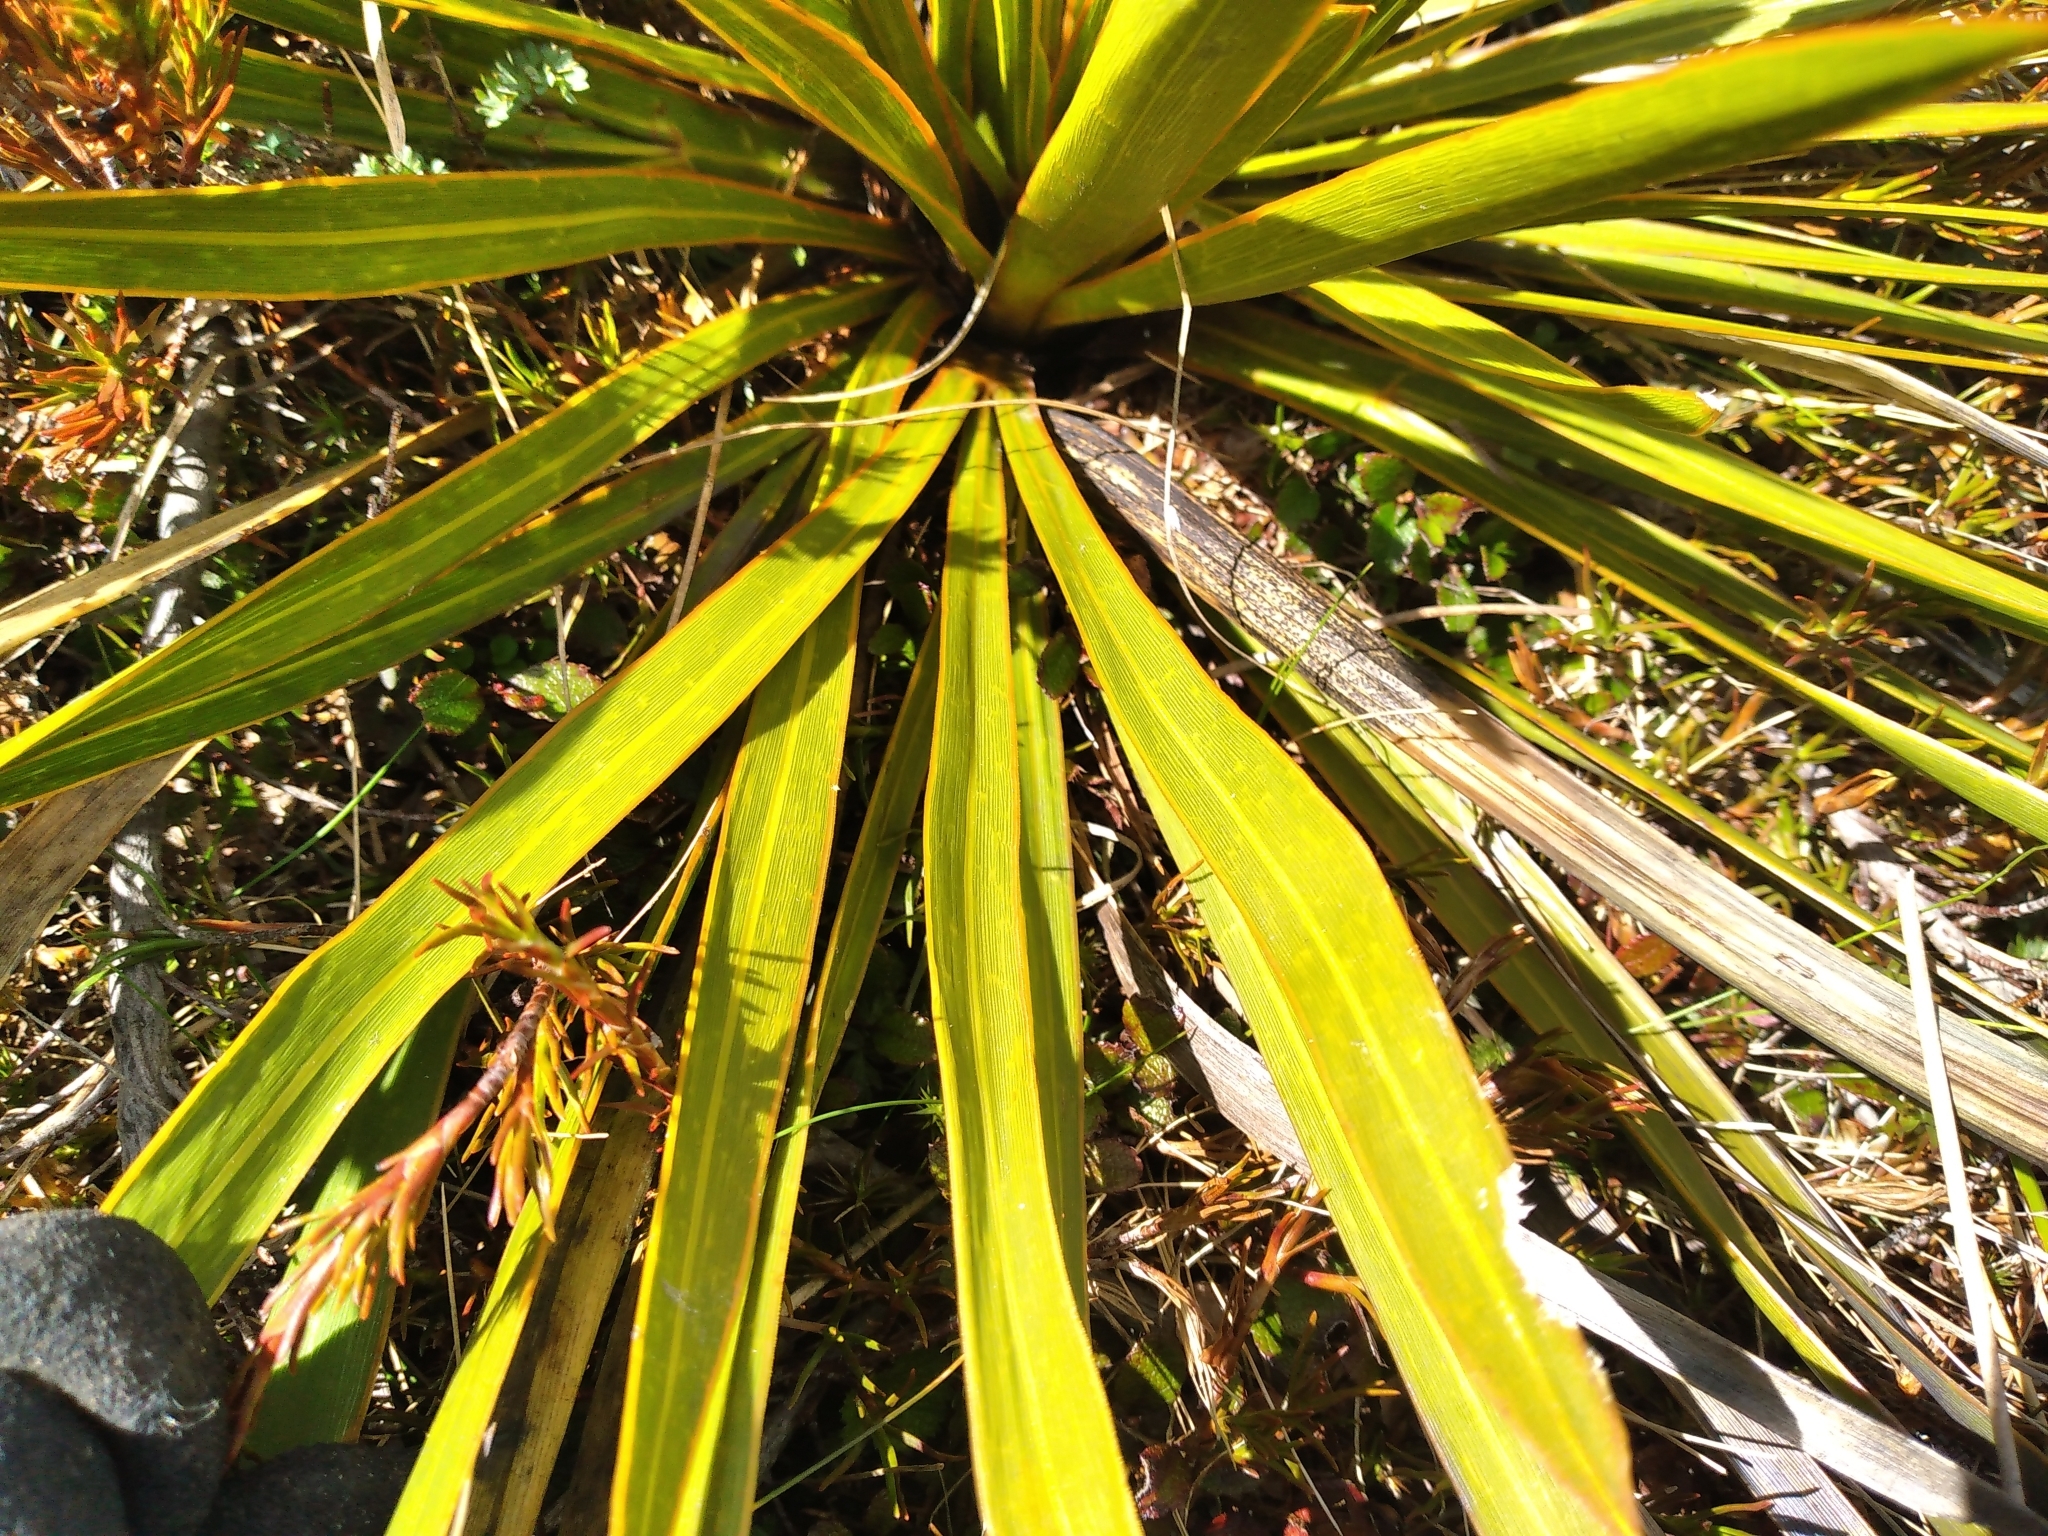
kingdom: Plantae
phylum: Tracheophyta
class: Magnoliopsida
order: Apiales
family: Apiaceae
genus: Aciphylla
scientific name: Aciphylla kirkii
